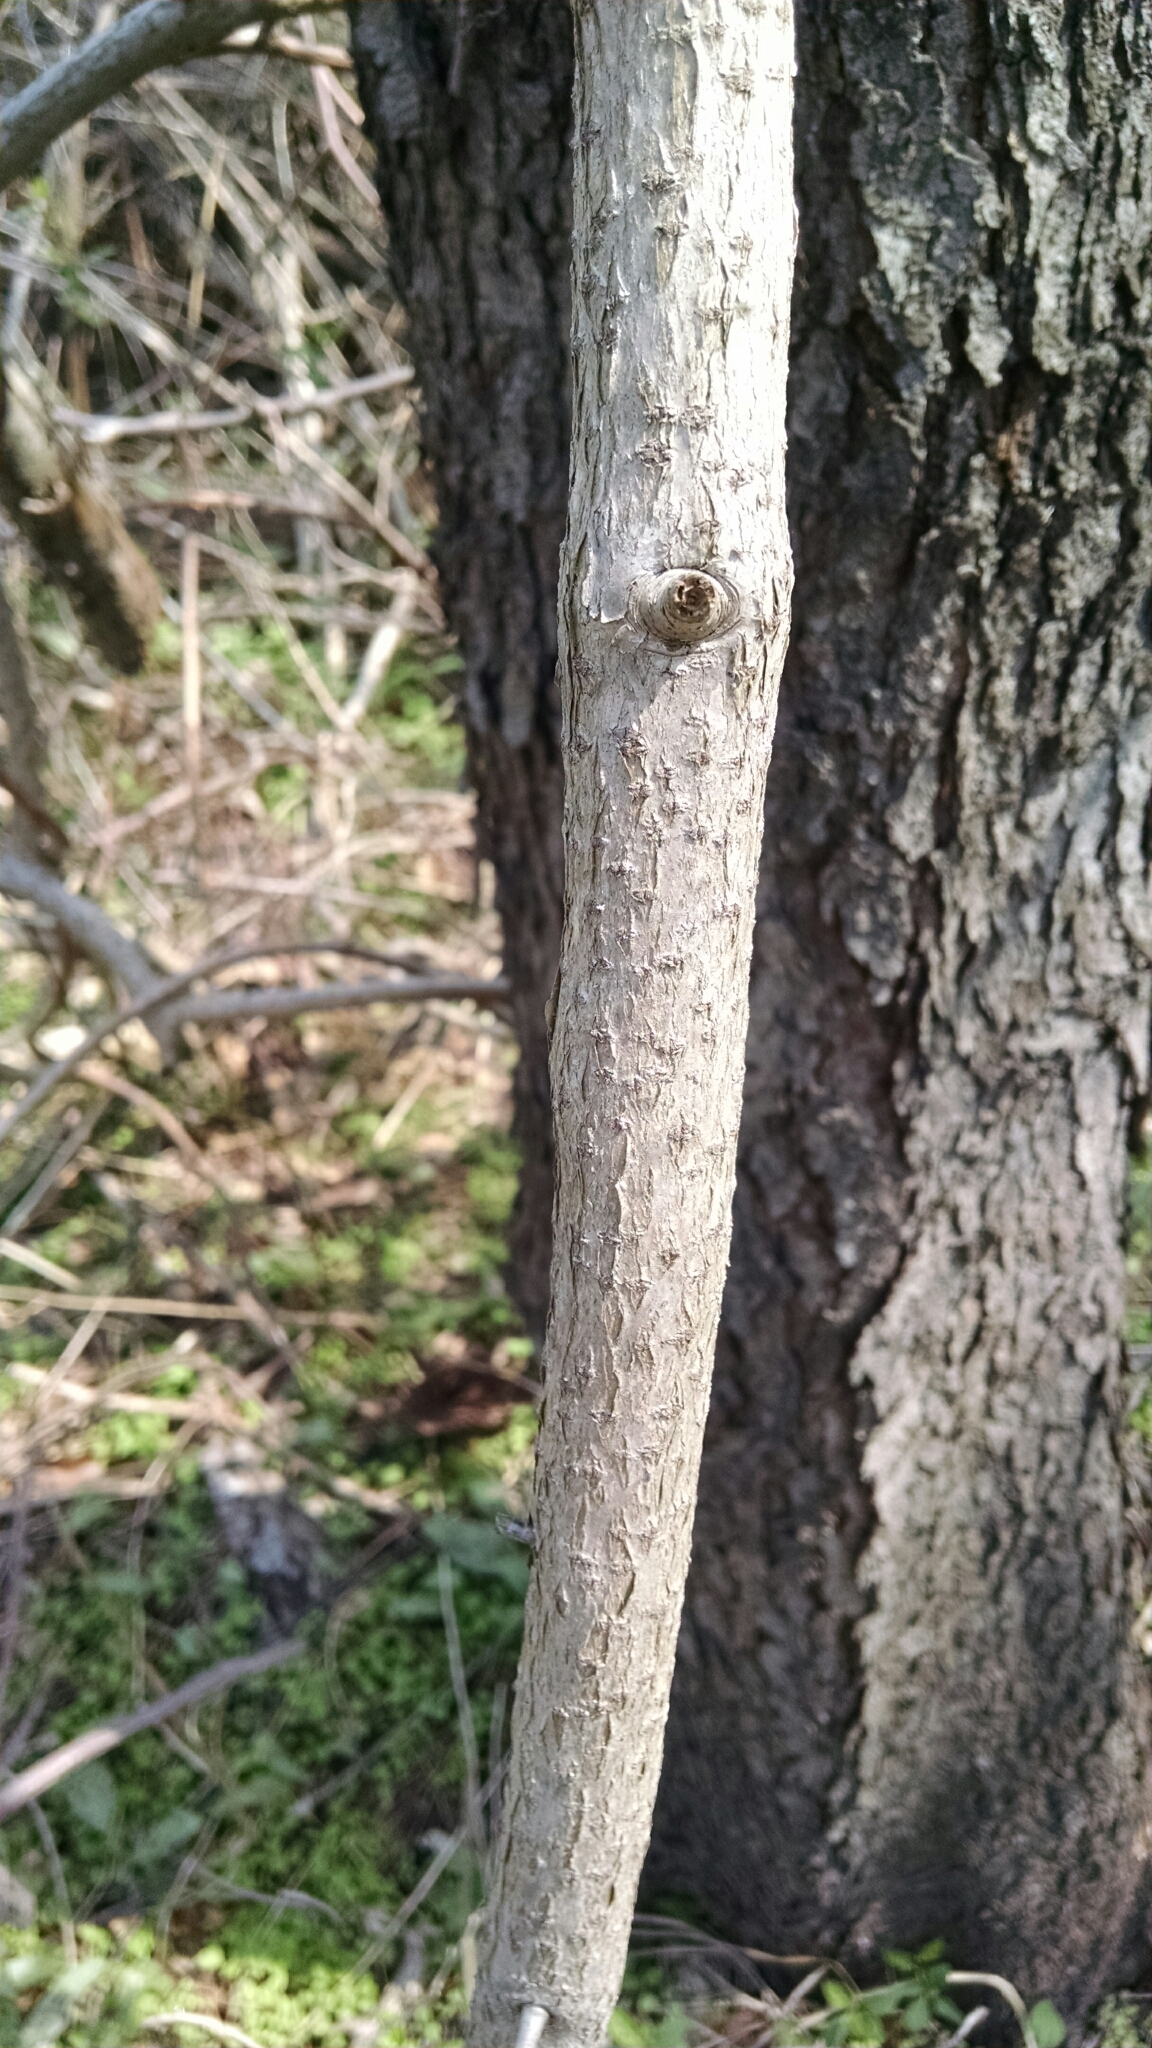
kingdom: Plantae
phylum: Tracheophyta
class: Magnoliopsida
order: Celastrales
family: Celastraceae
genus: Celastrus
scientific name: Celastrus orbiculatus
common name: Oriental bittersweet
